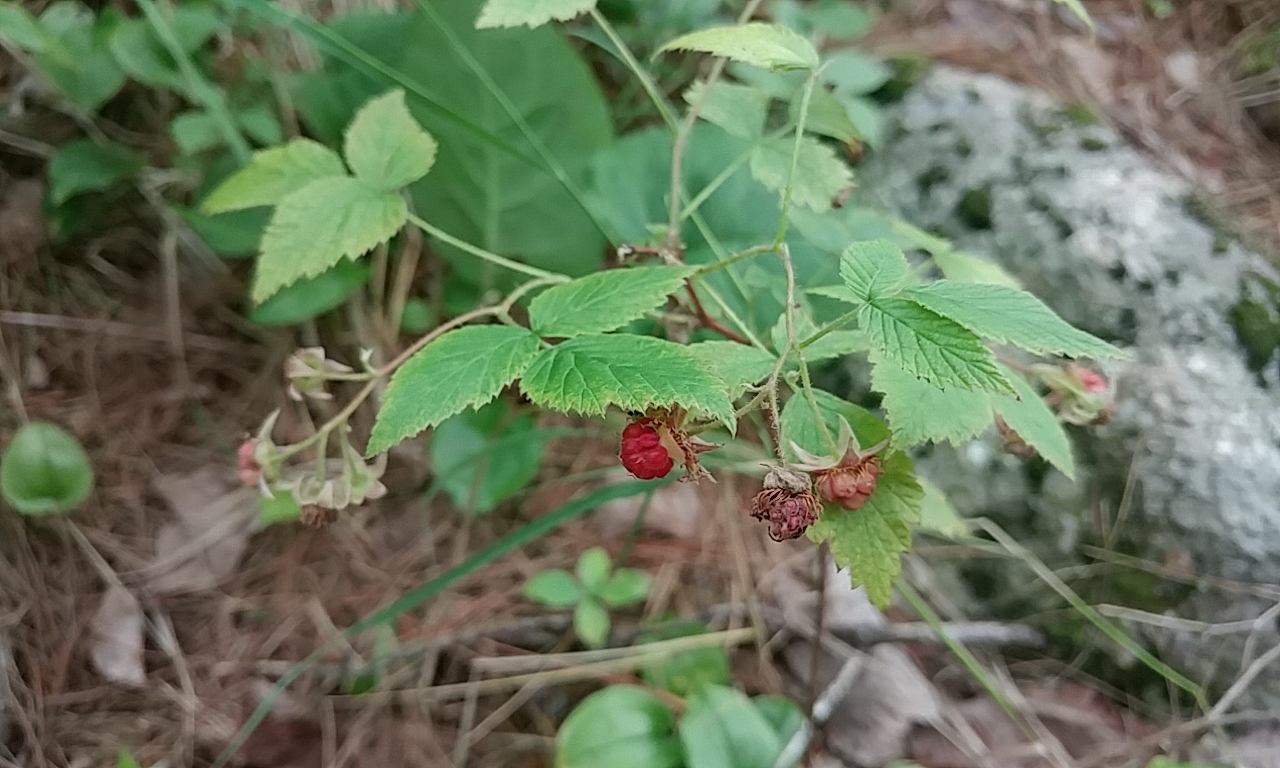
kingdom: Plantae
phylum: Tracheophyta
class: Magnoliopsida
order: Rosales
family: Rosaceae
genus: Rubus
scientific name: Rubus idaeus
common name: Raspberry
